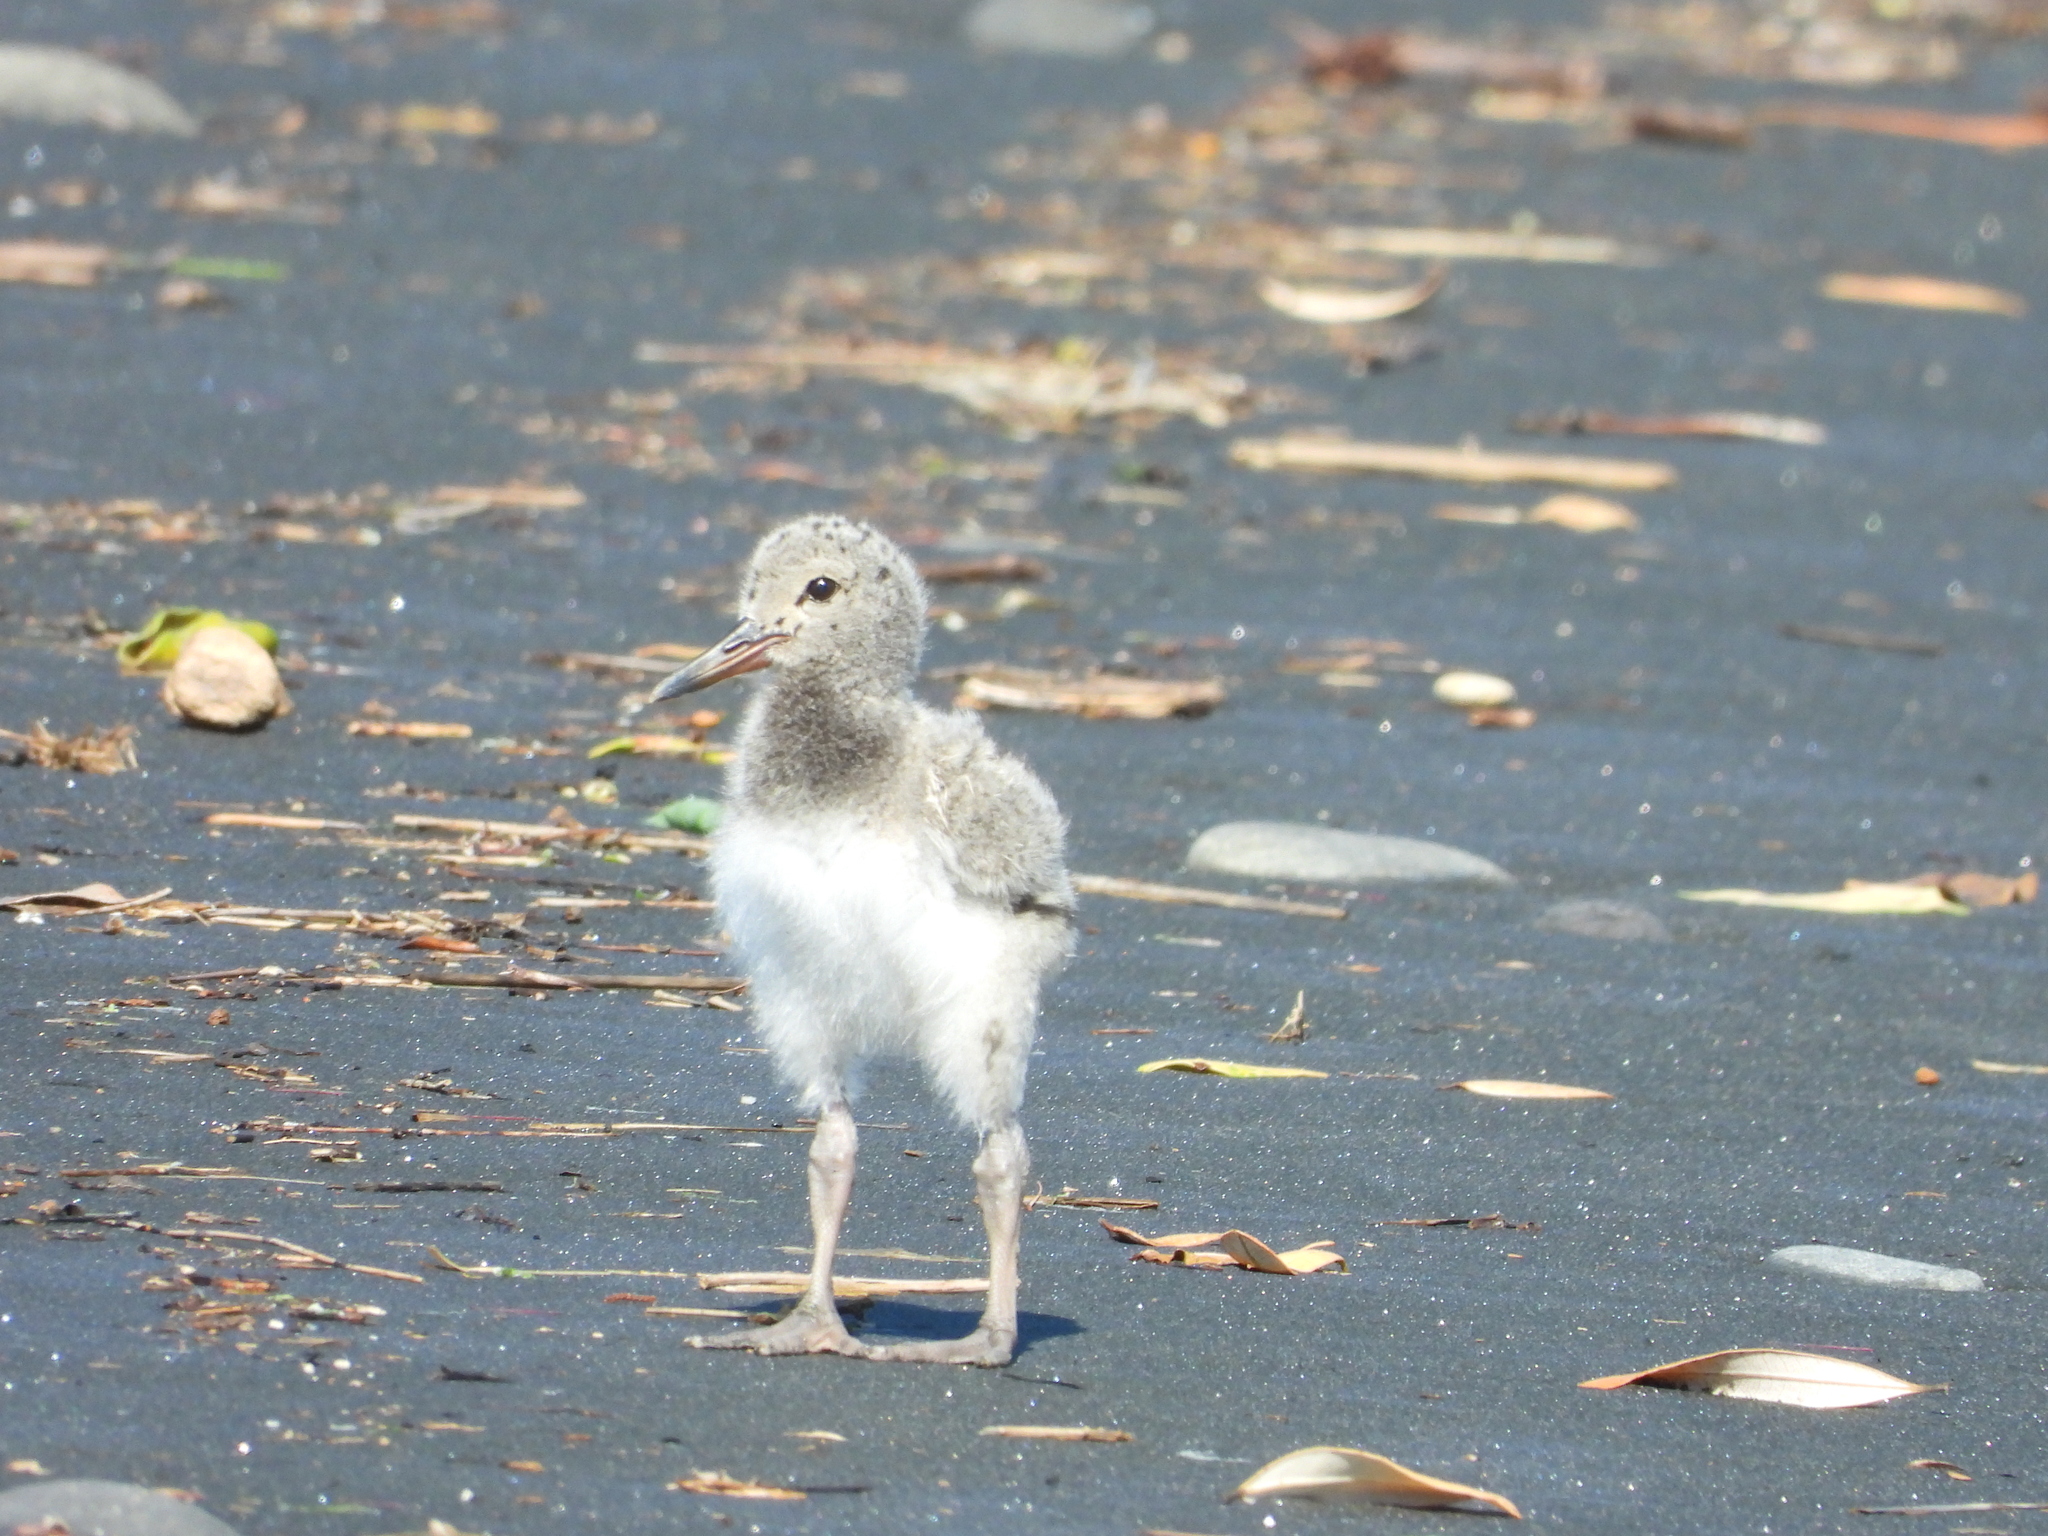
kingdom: Animalia
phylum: Chordata
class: Aves
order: Charadriiformes
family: Haematopodidae
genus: Haematopus
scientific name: Haematopus unicolor
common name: Variable oystercatcher
